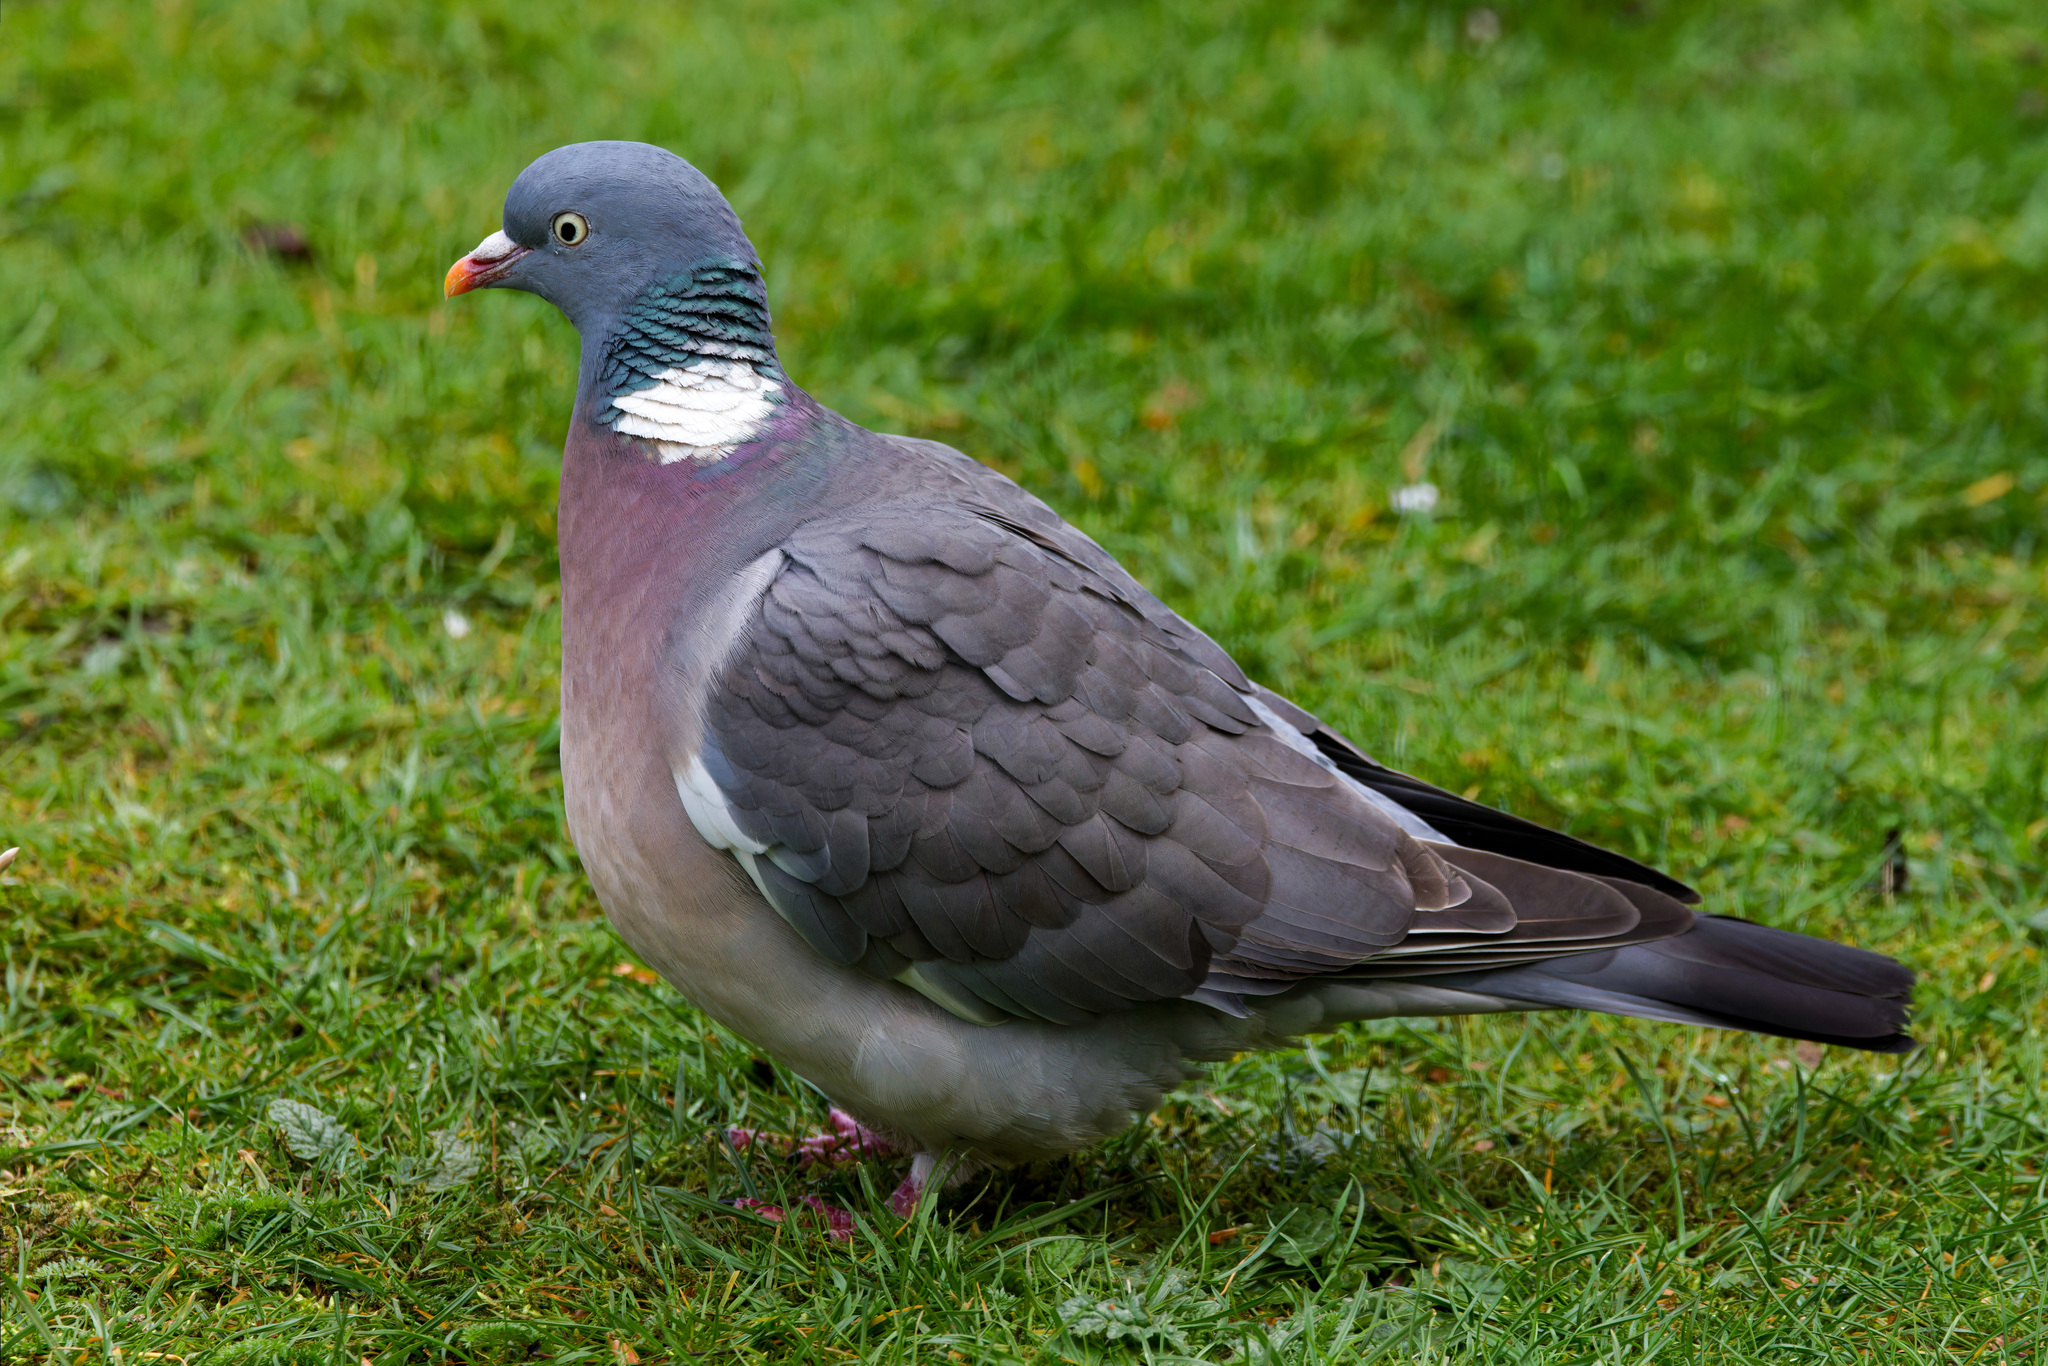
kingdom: Animalia
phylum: Chordata
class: Aves
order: Columbiformes
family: Columbidae
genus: Columba
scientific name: Columba palumbus
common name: Common wood pigeon
